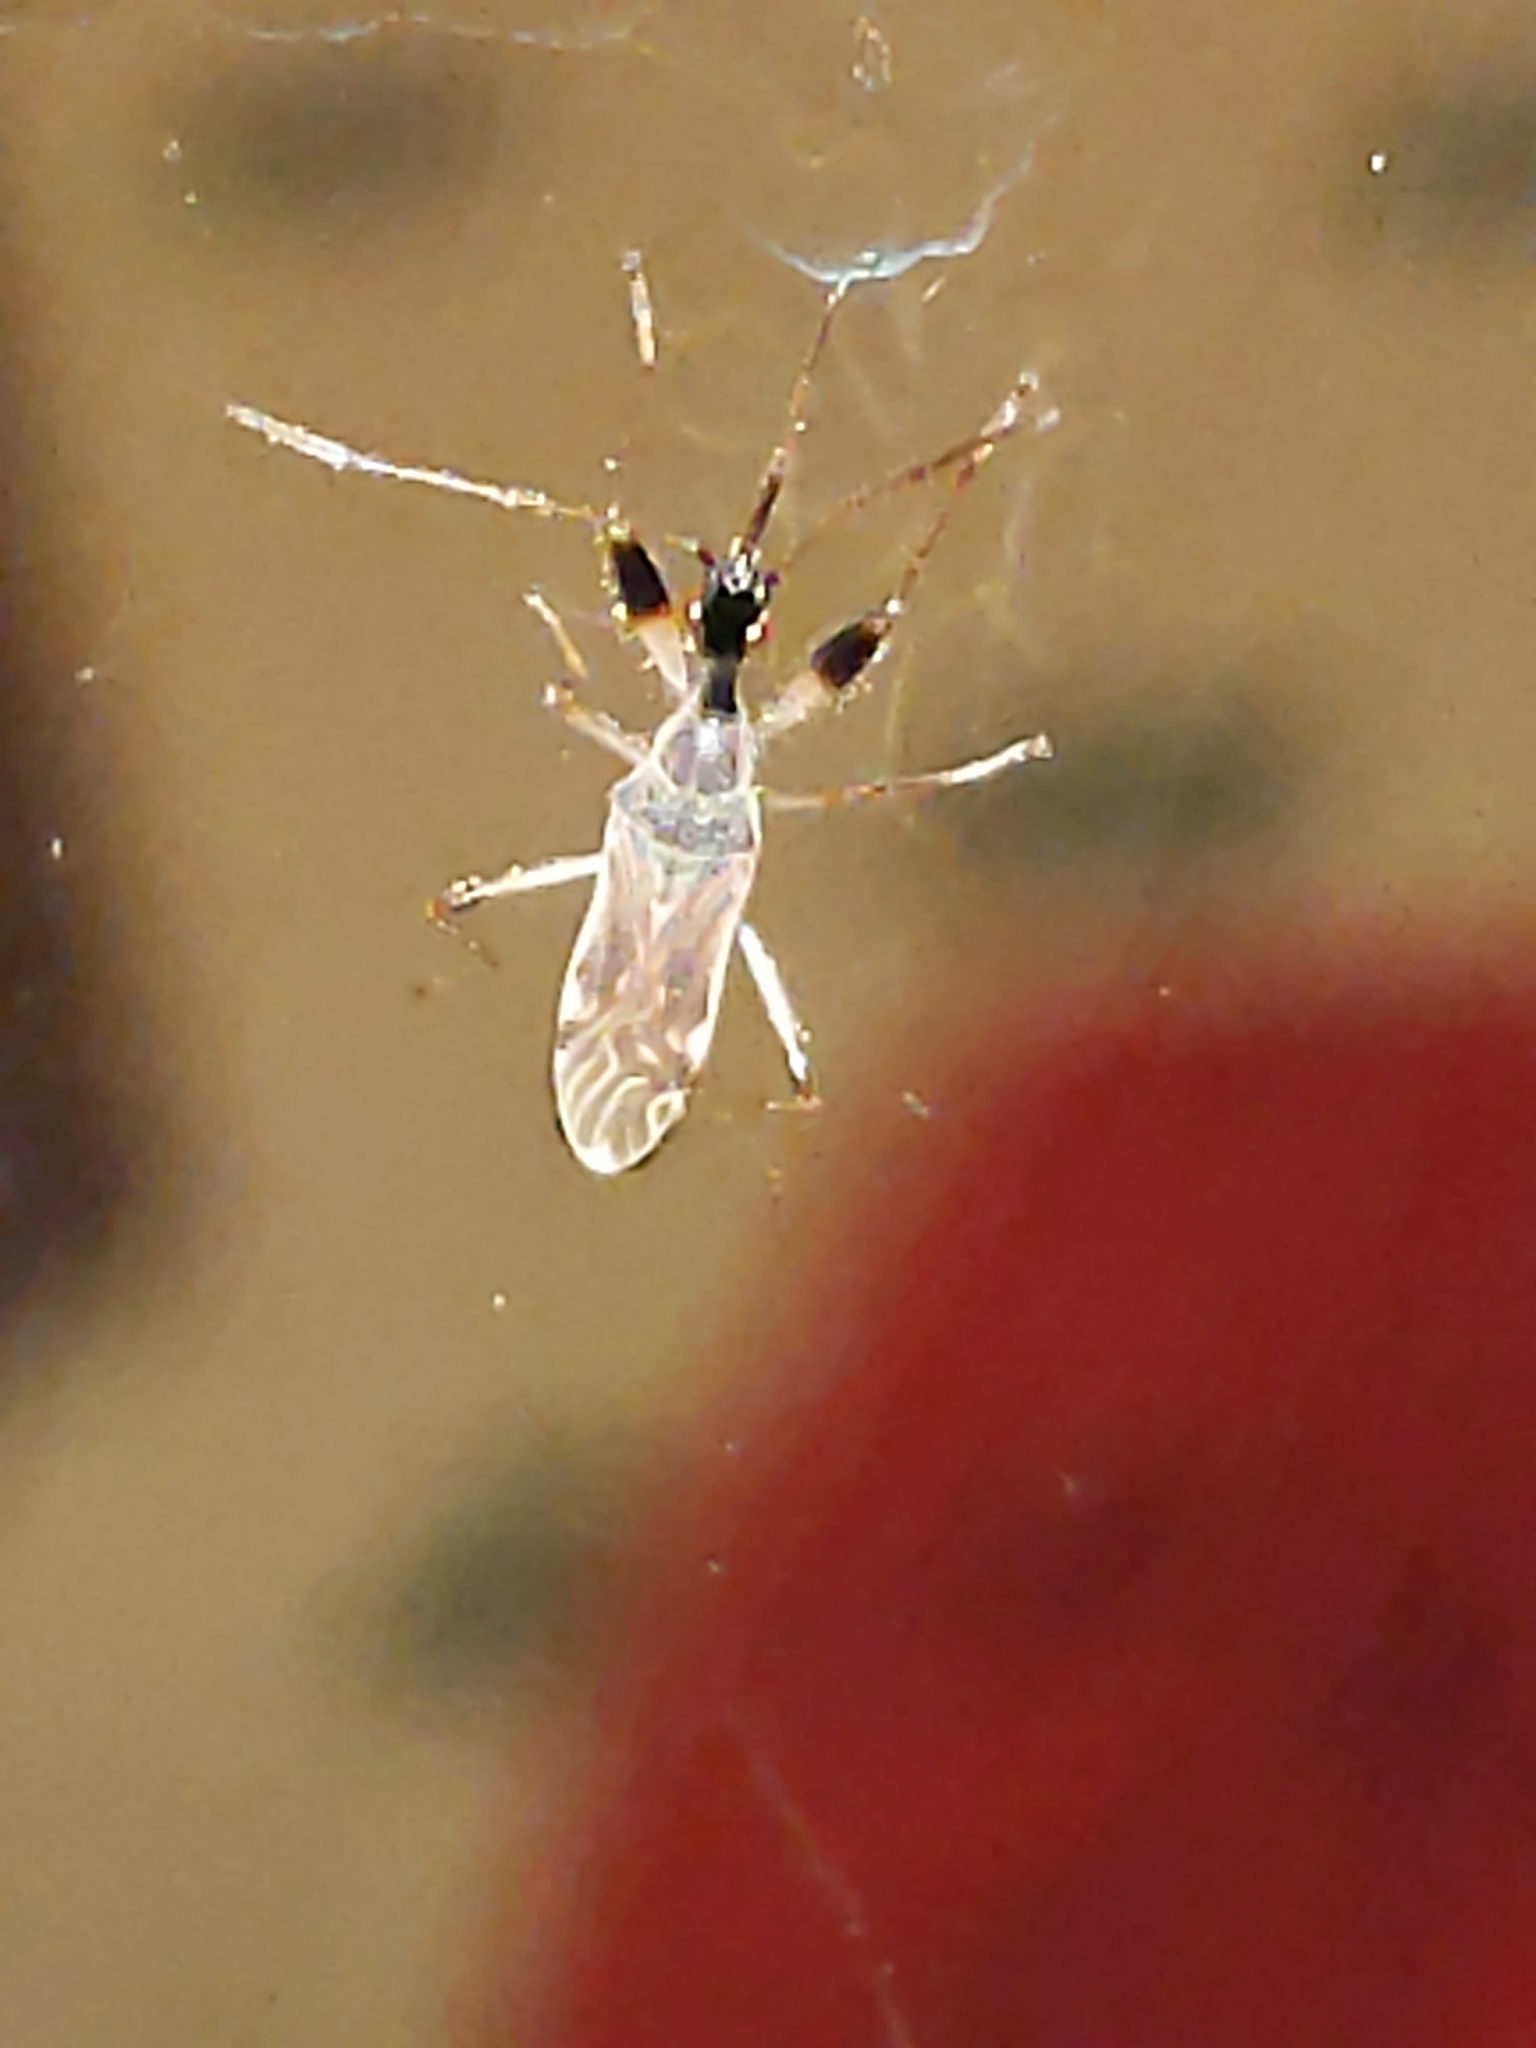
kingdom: Animalia
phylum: Arthropoda
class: Insecta
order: Hemiptera
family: Rhyparochromidae
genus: Myodocha
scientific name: Myodocha serripes
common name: Long-necked seed bug
